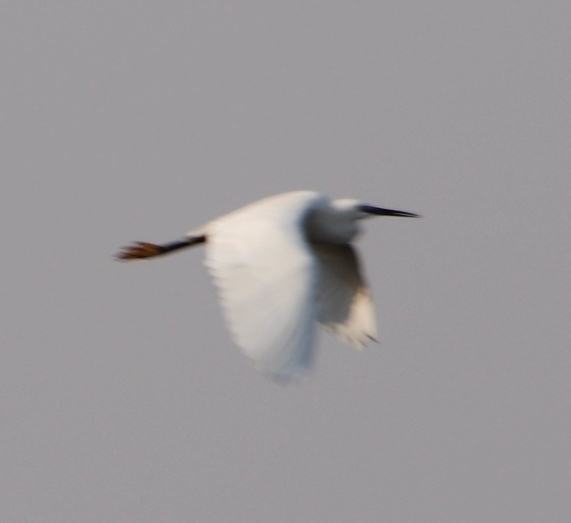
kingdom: Animalia
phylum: Chordata
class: Aves
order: Pelecaniformes
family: Ardeidae
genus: Egretta
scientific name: Egretta garzetta
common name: Little egret
